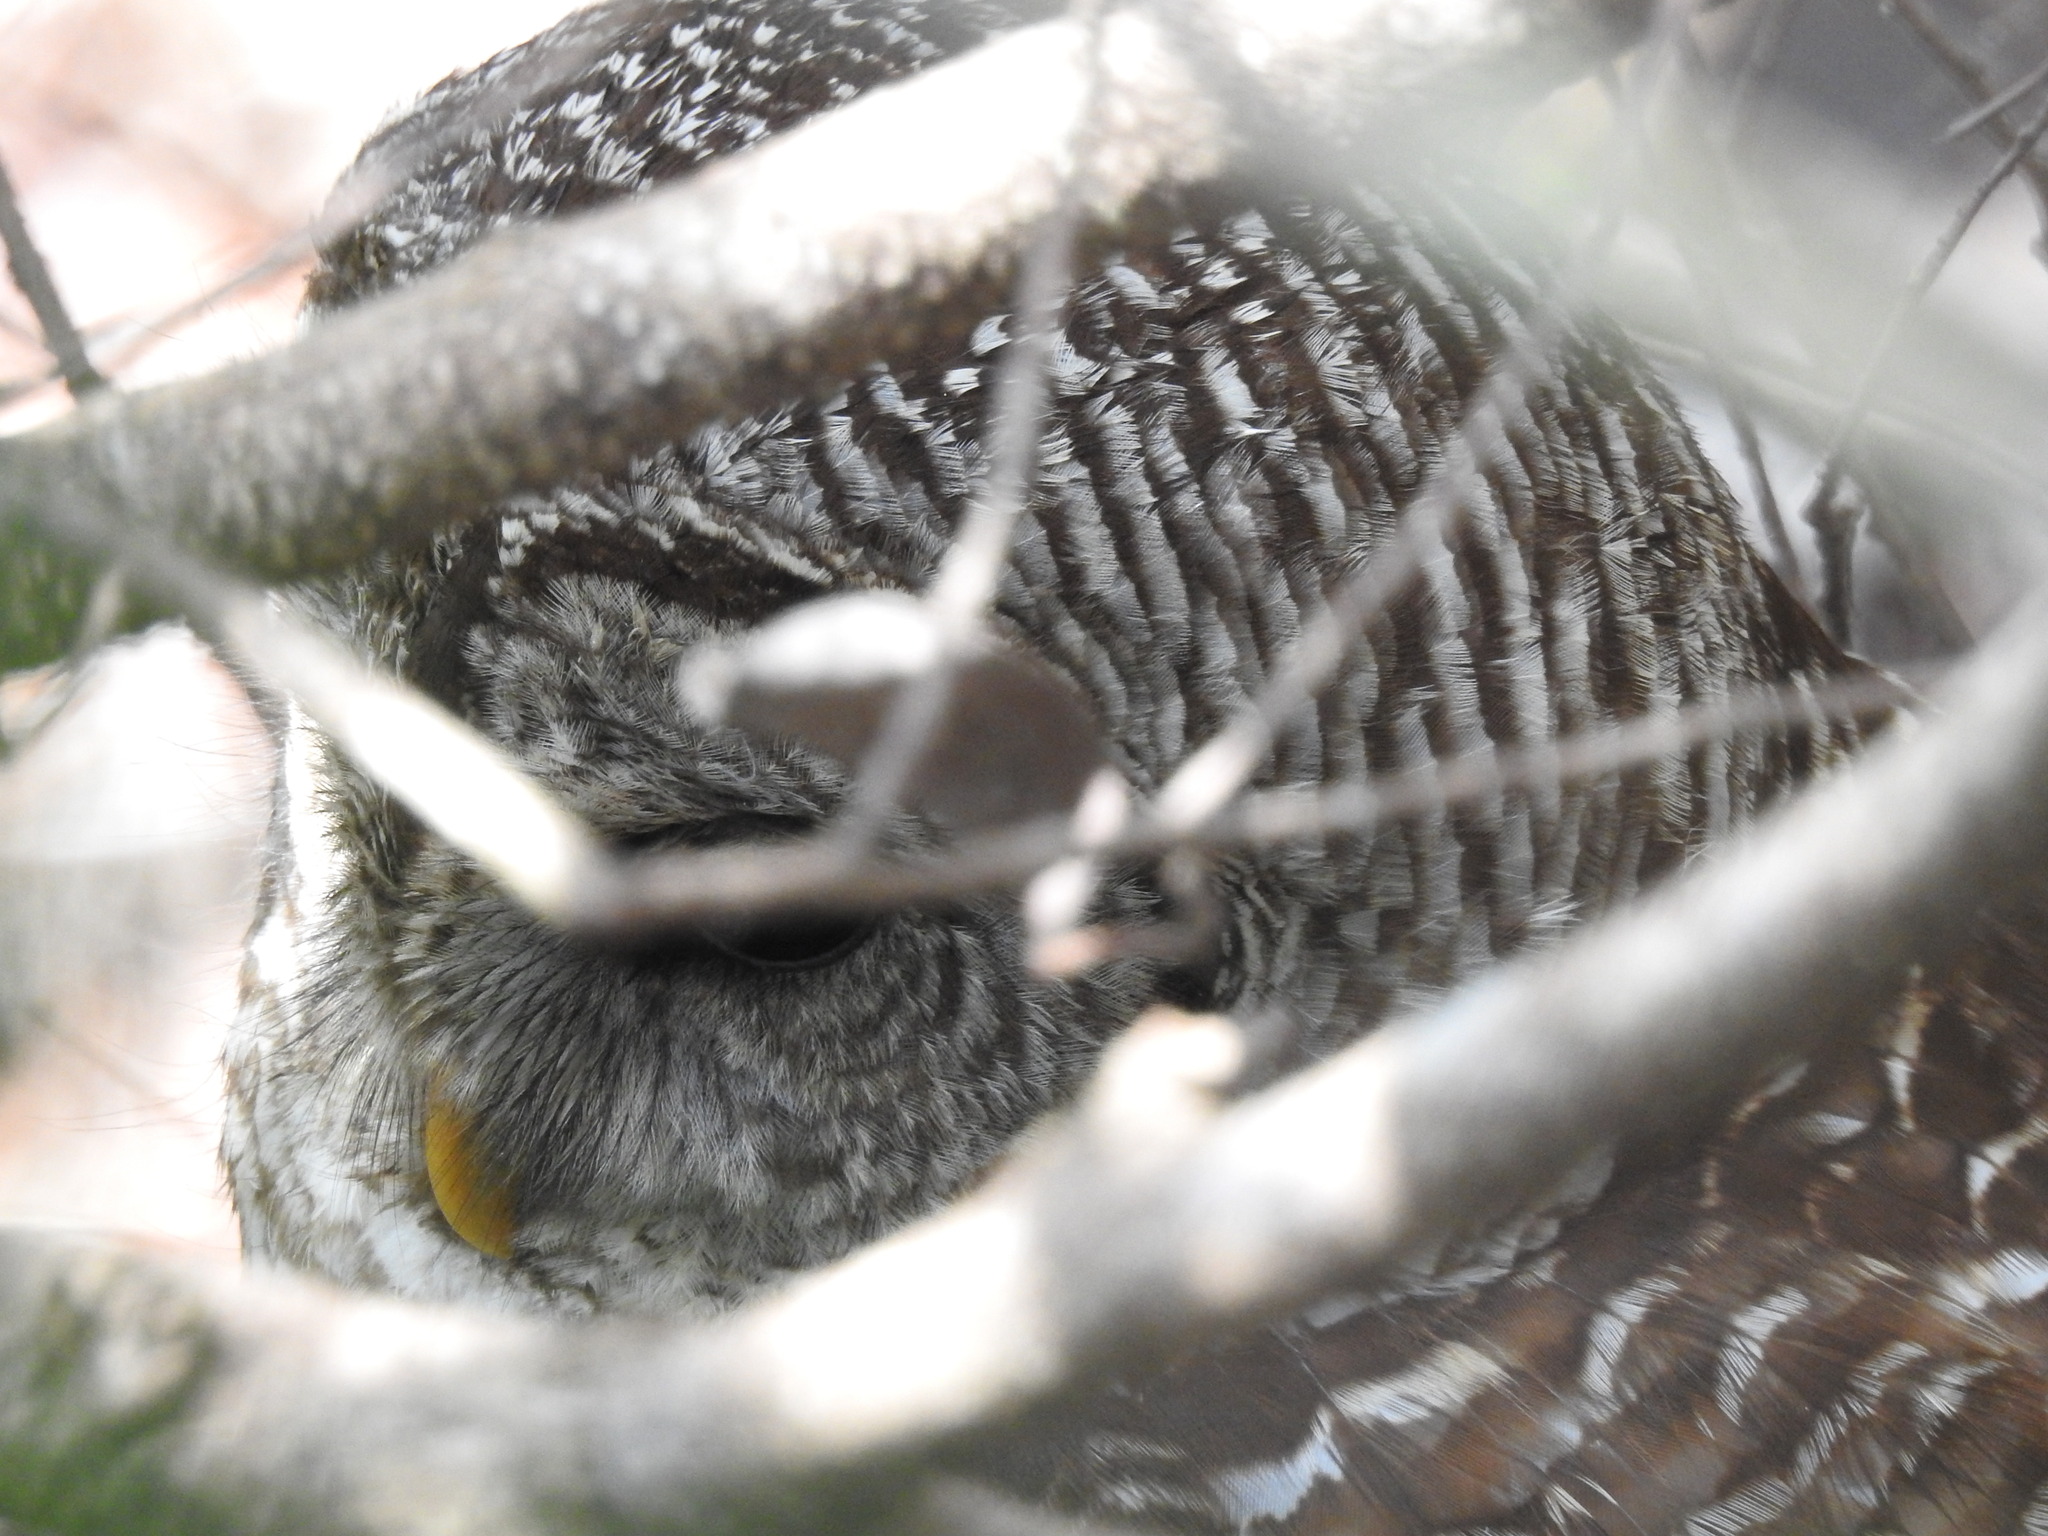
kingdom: Animalia
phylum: Chordata
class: Aves
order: Strigiformes
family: Strigidae
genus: Strix
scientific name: Strix varia
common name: Barred owl
